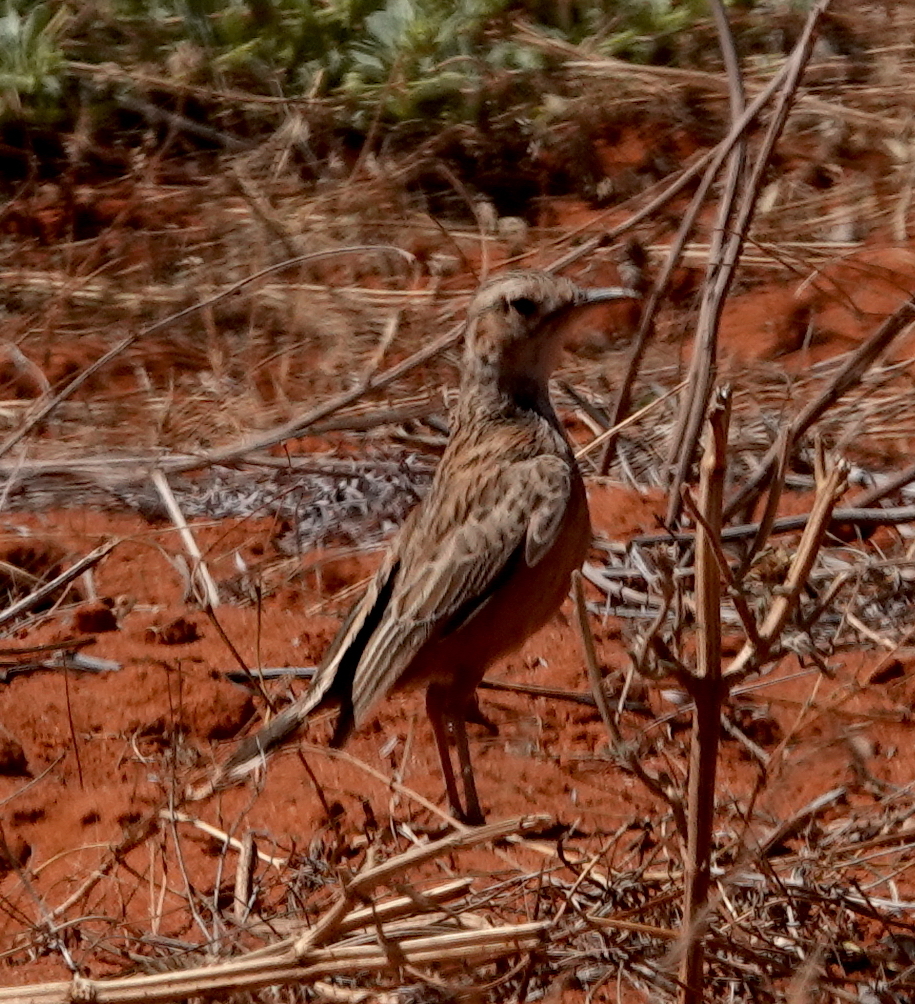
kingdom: Animalia
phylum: Chordata
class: Aves
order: Passeriformes
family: Alaudidae
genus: Chersomanes
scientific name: Chersomanes albofasciata
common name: Spike-heeled lark
